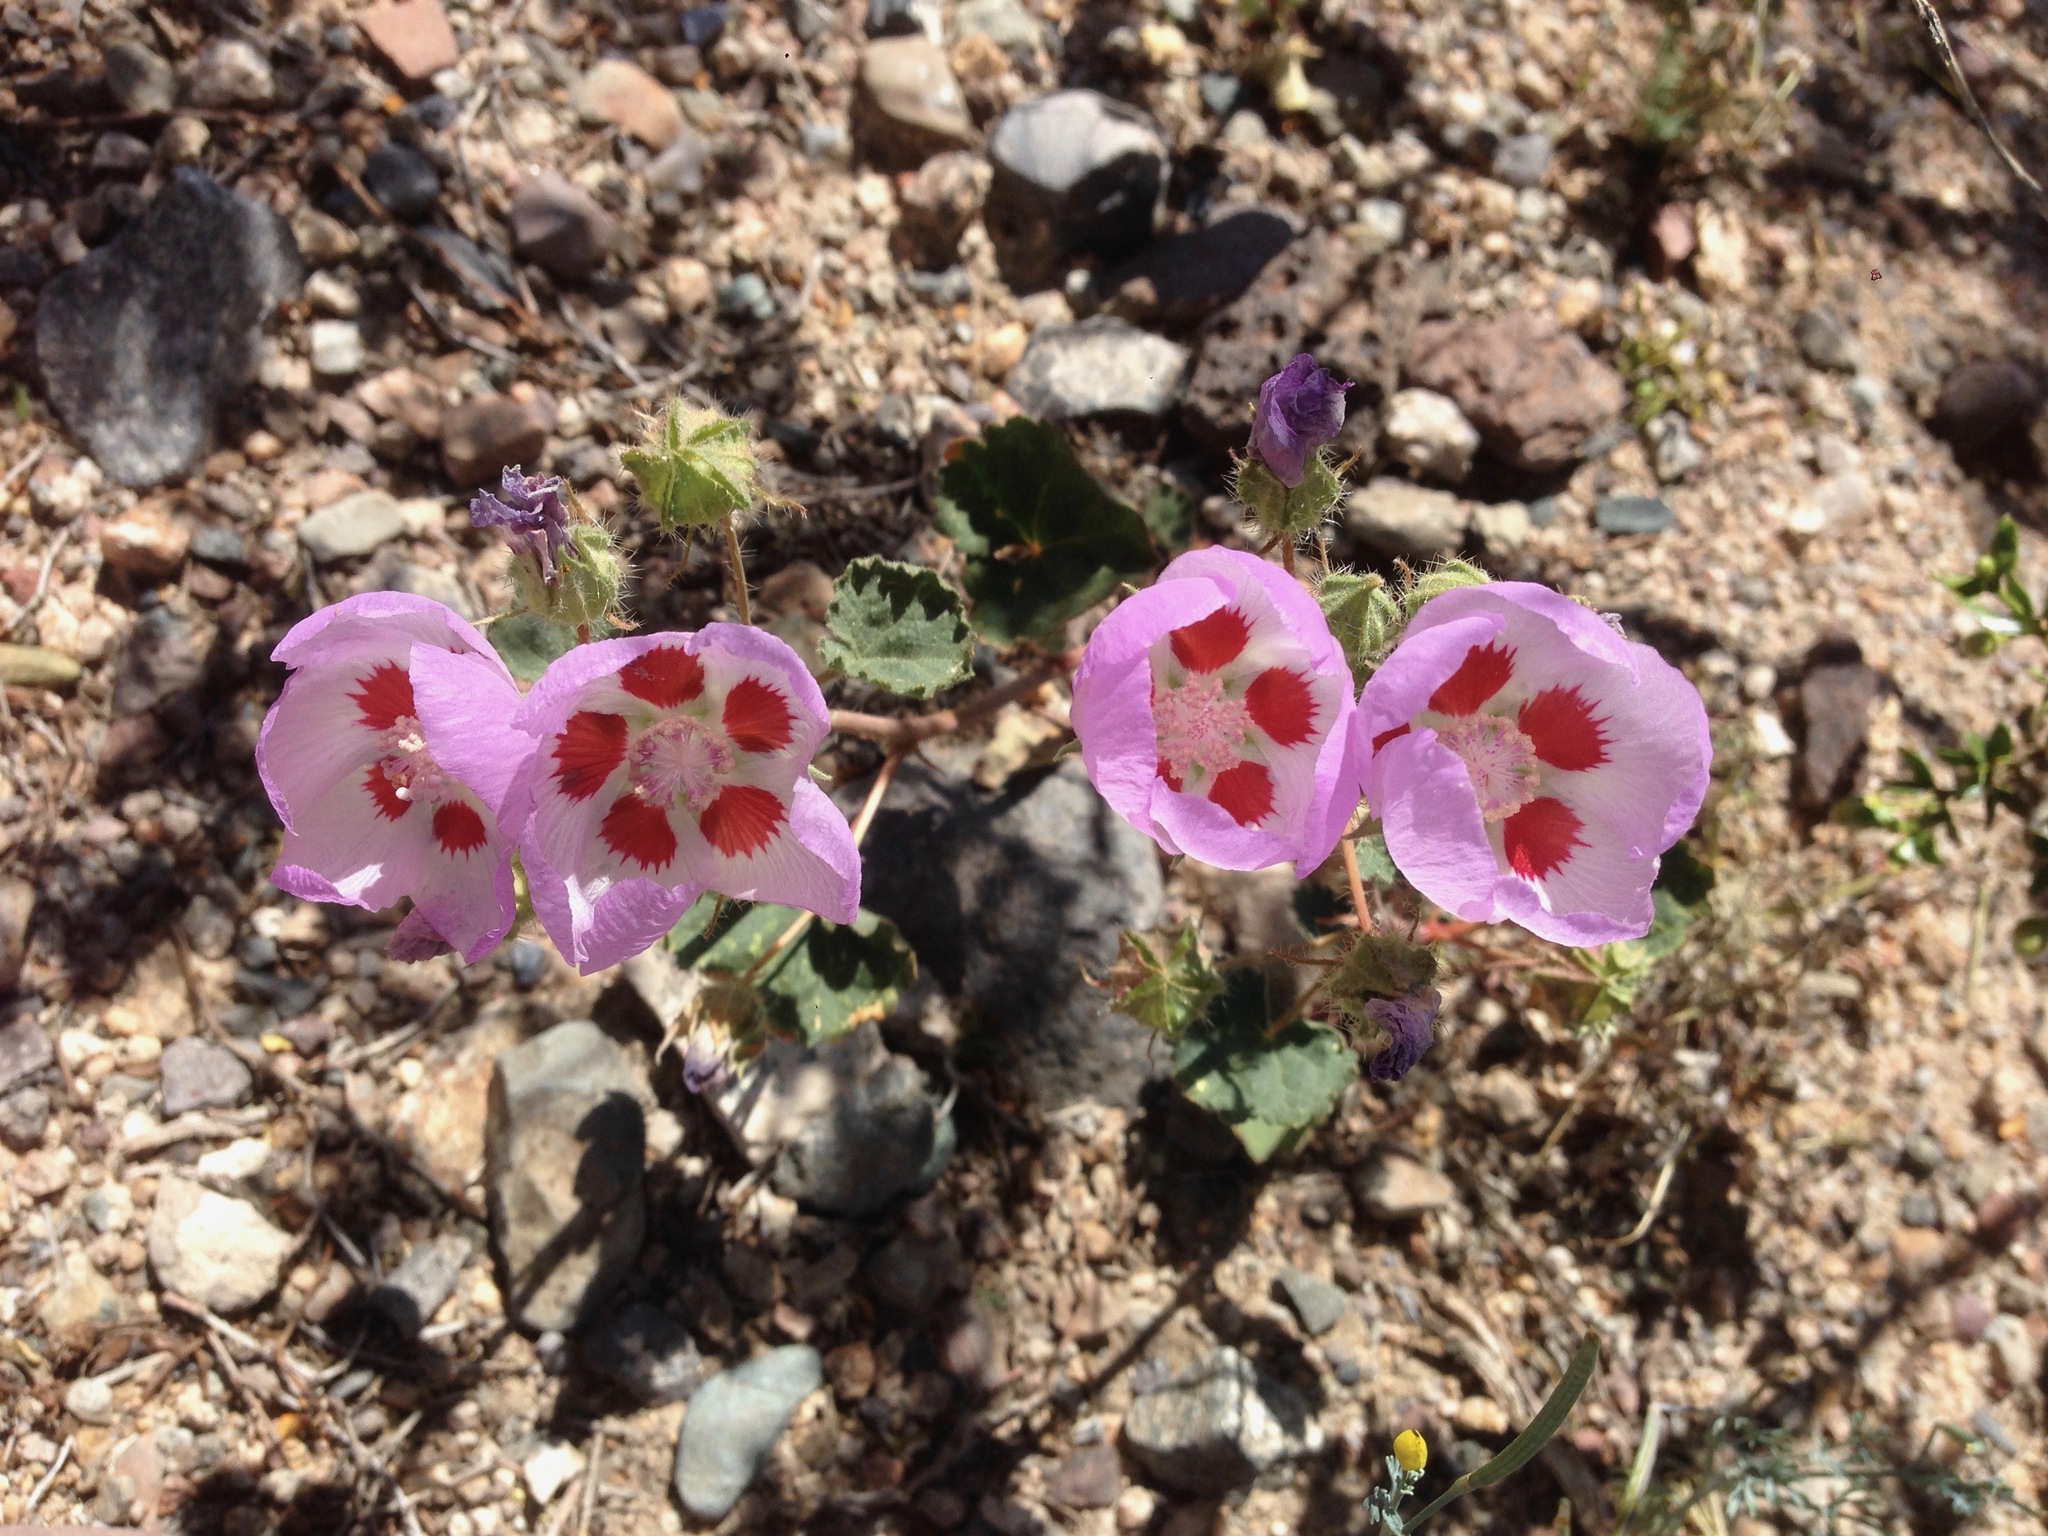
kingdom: Plantae
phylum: Tracheophyta
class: Magnoliopsida
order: Malvales
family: Malvaceae
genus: Eremalche
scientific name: Eremalche rotundifolia
